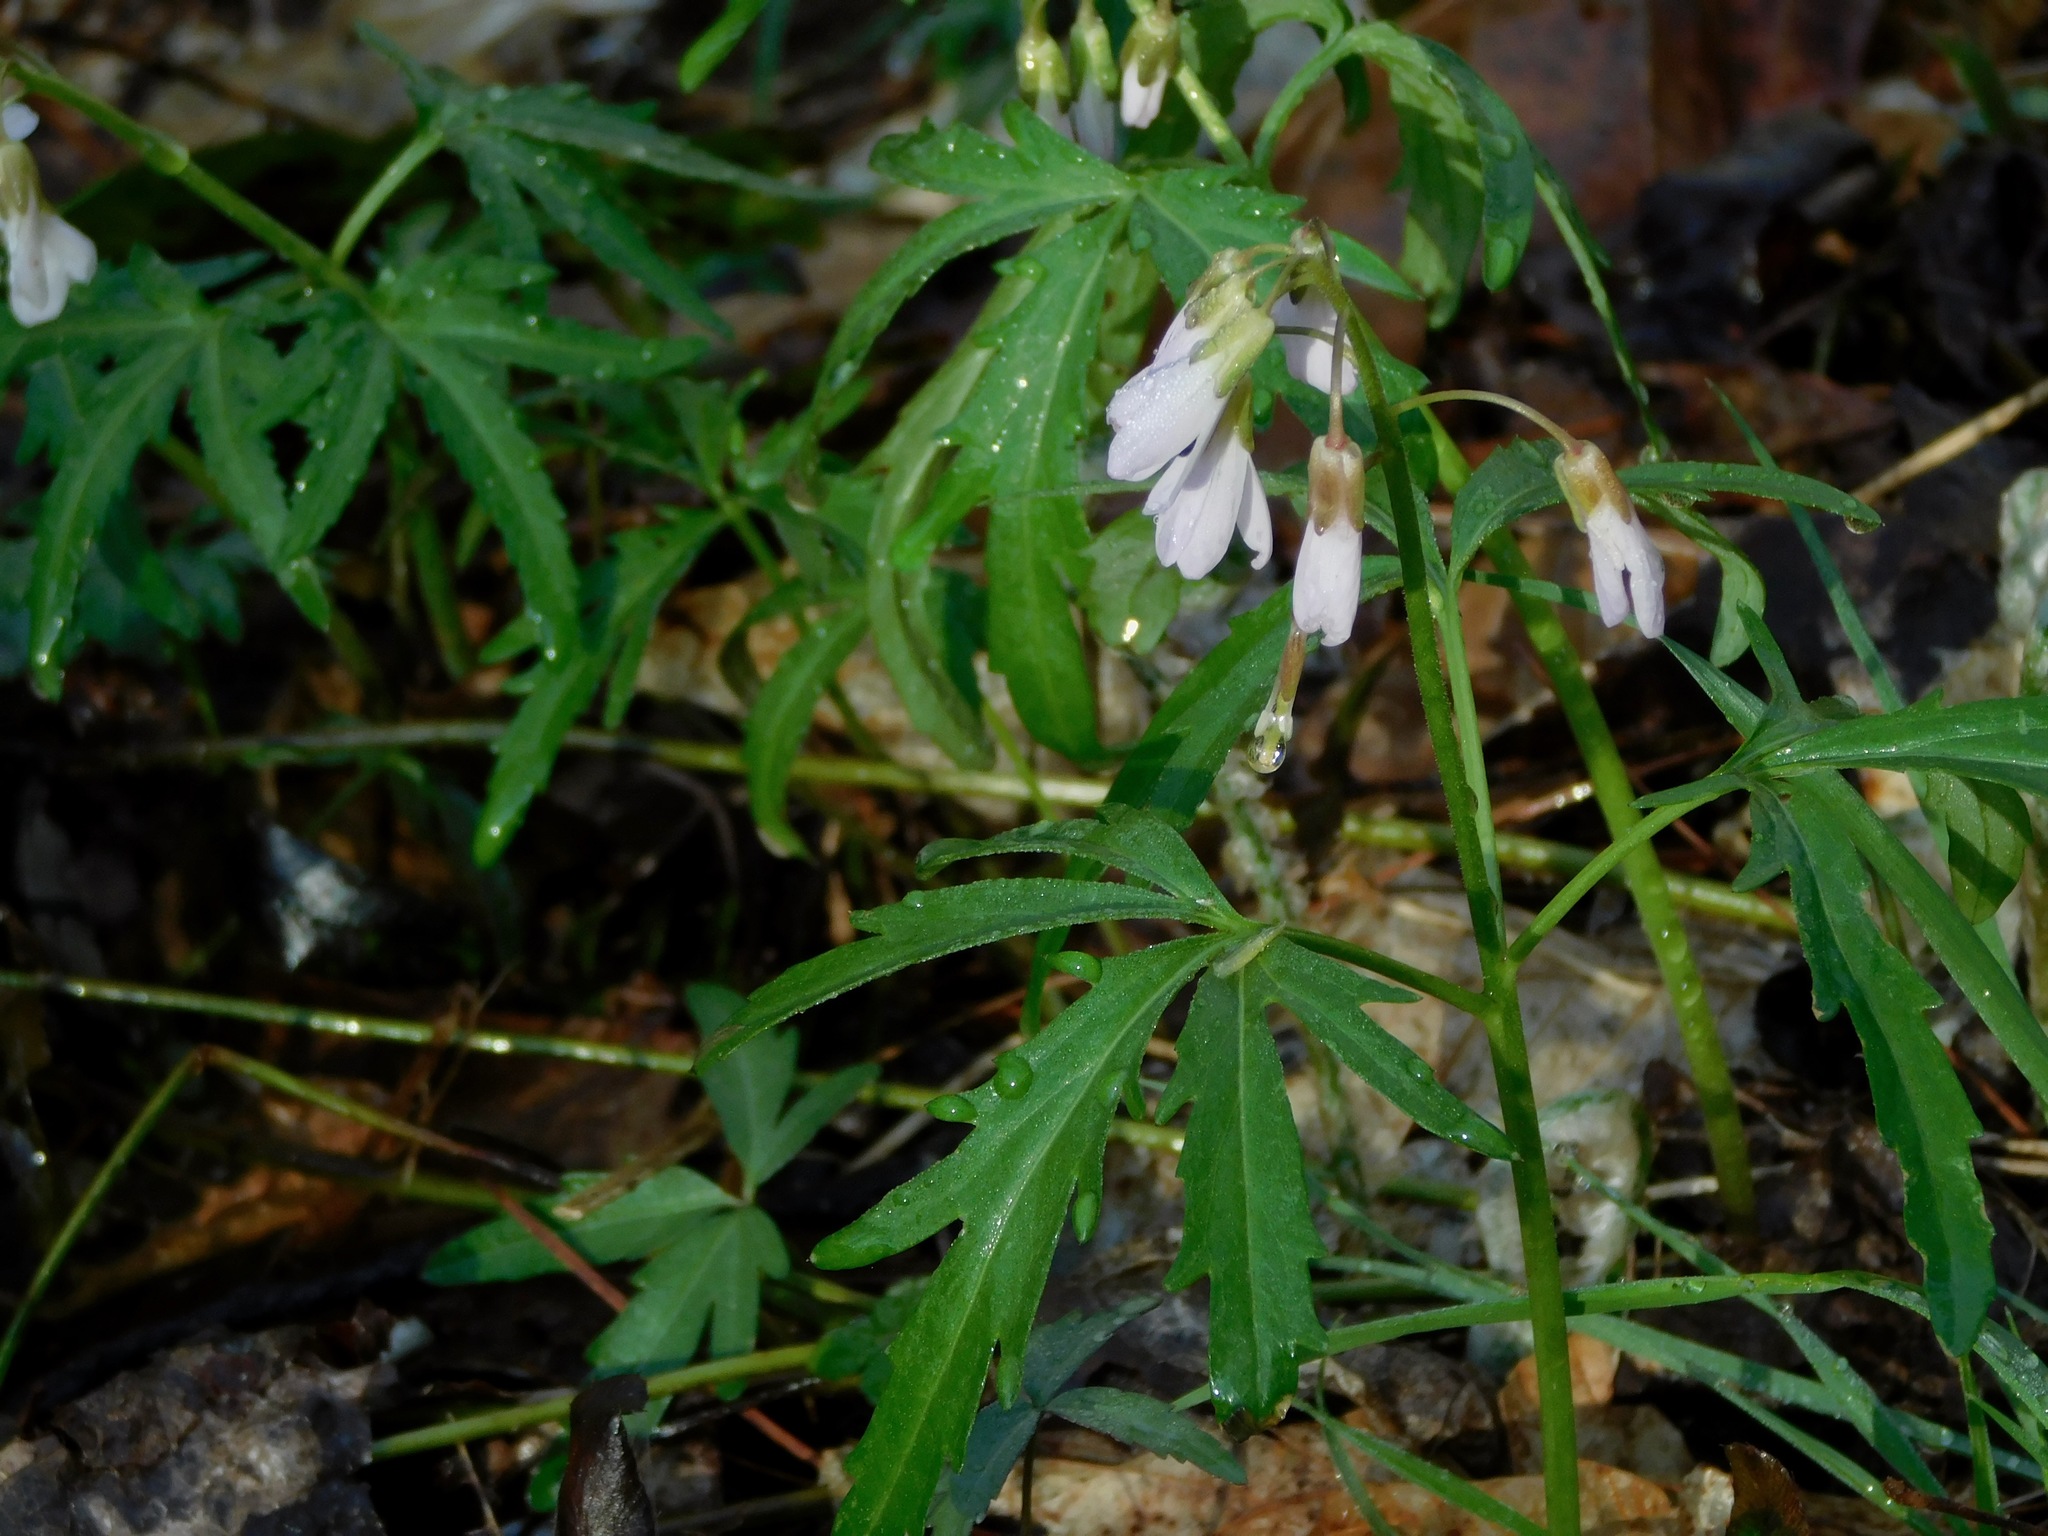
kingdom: Plantae
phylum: Tracheophyta
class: Magnoliopsida
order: Brassicales
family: Brassicaceae
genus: Cardamine
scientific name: Cardamine concatenata
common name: Cut-leaf toothcup
